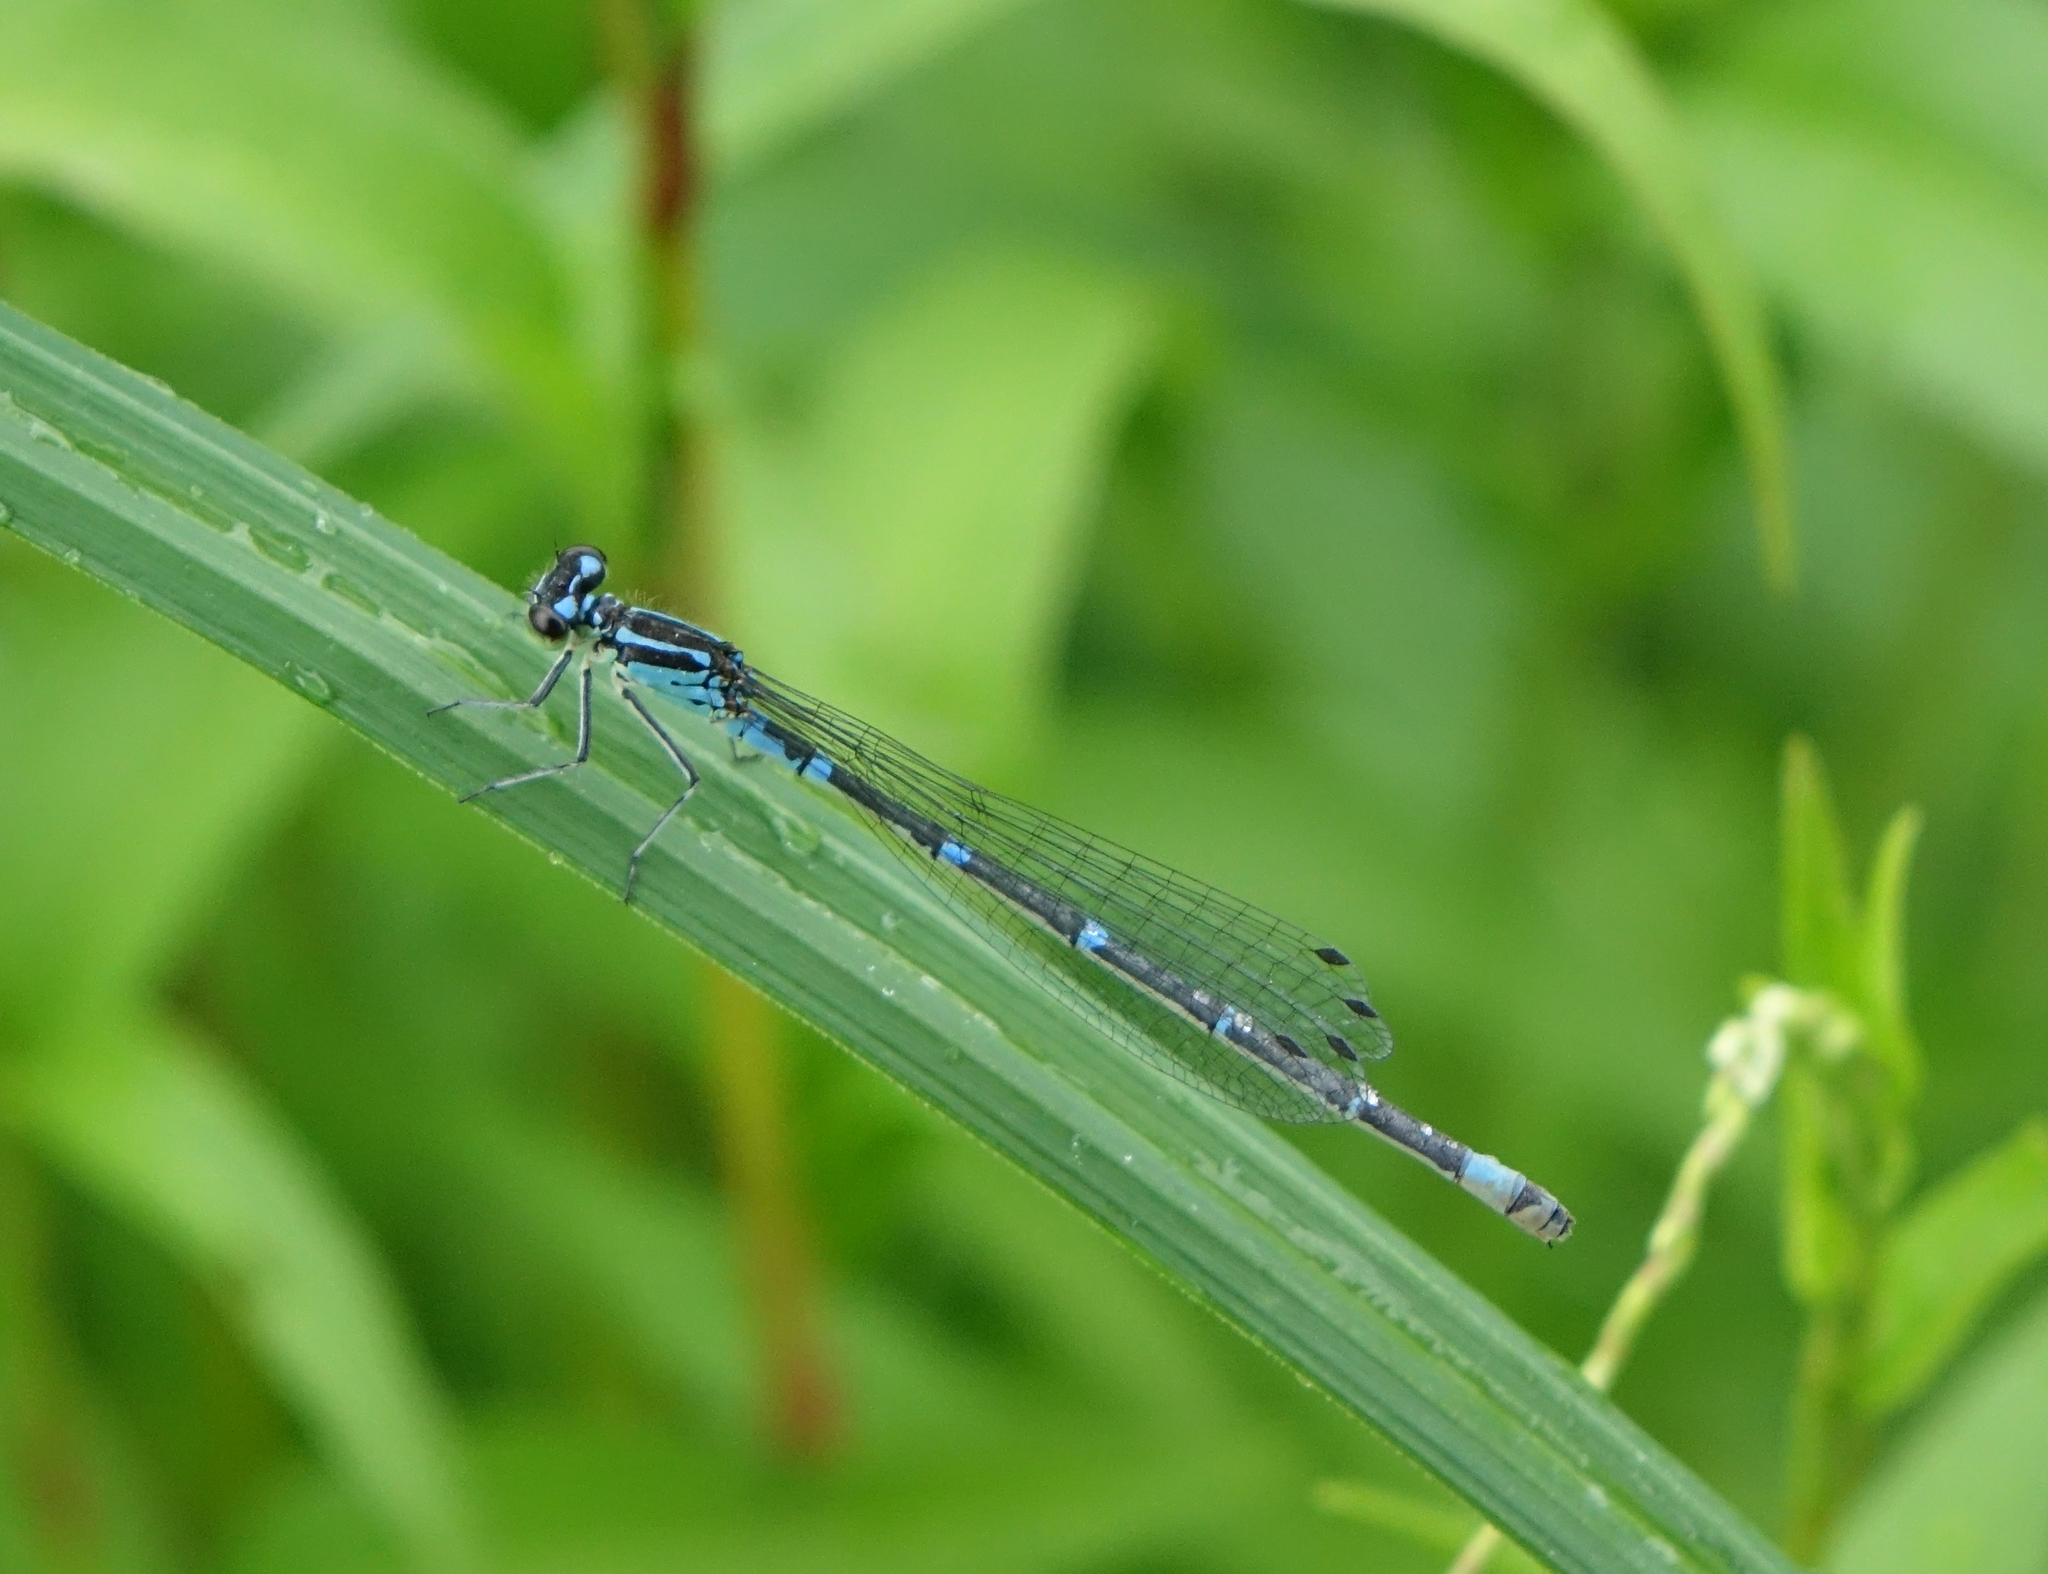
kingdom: Animalia
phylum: Arthropoda
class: Insecta
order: Odonata
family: Coenagrionidae
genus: Coenagrion
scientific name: Coenagrion pulchellum
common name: Variable bluet
